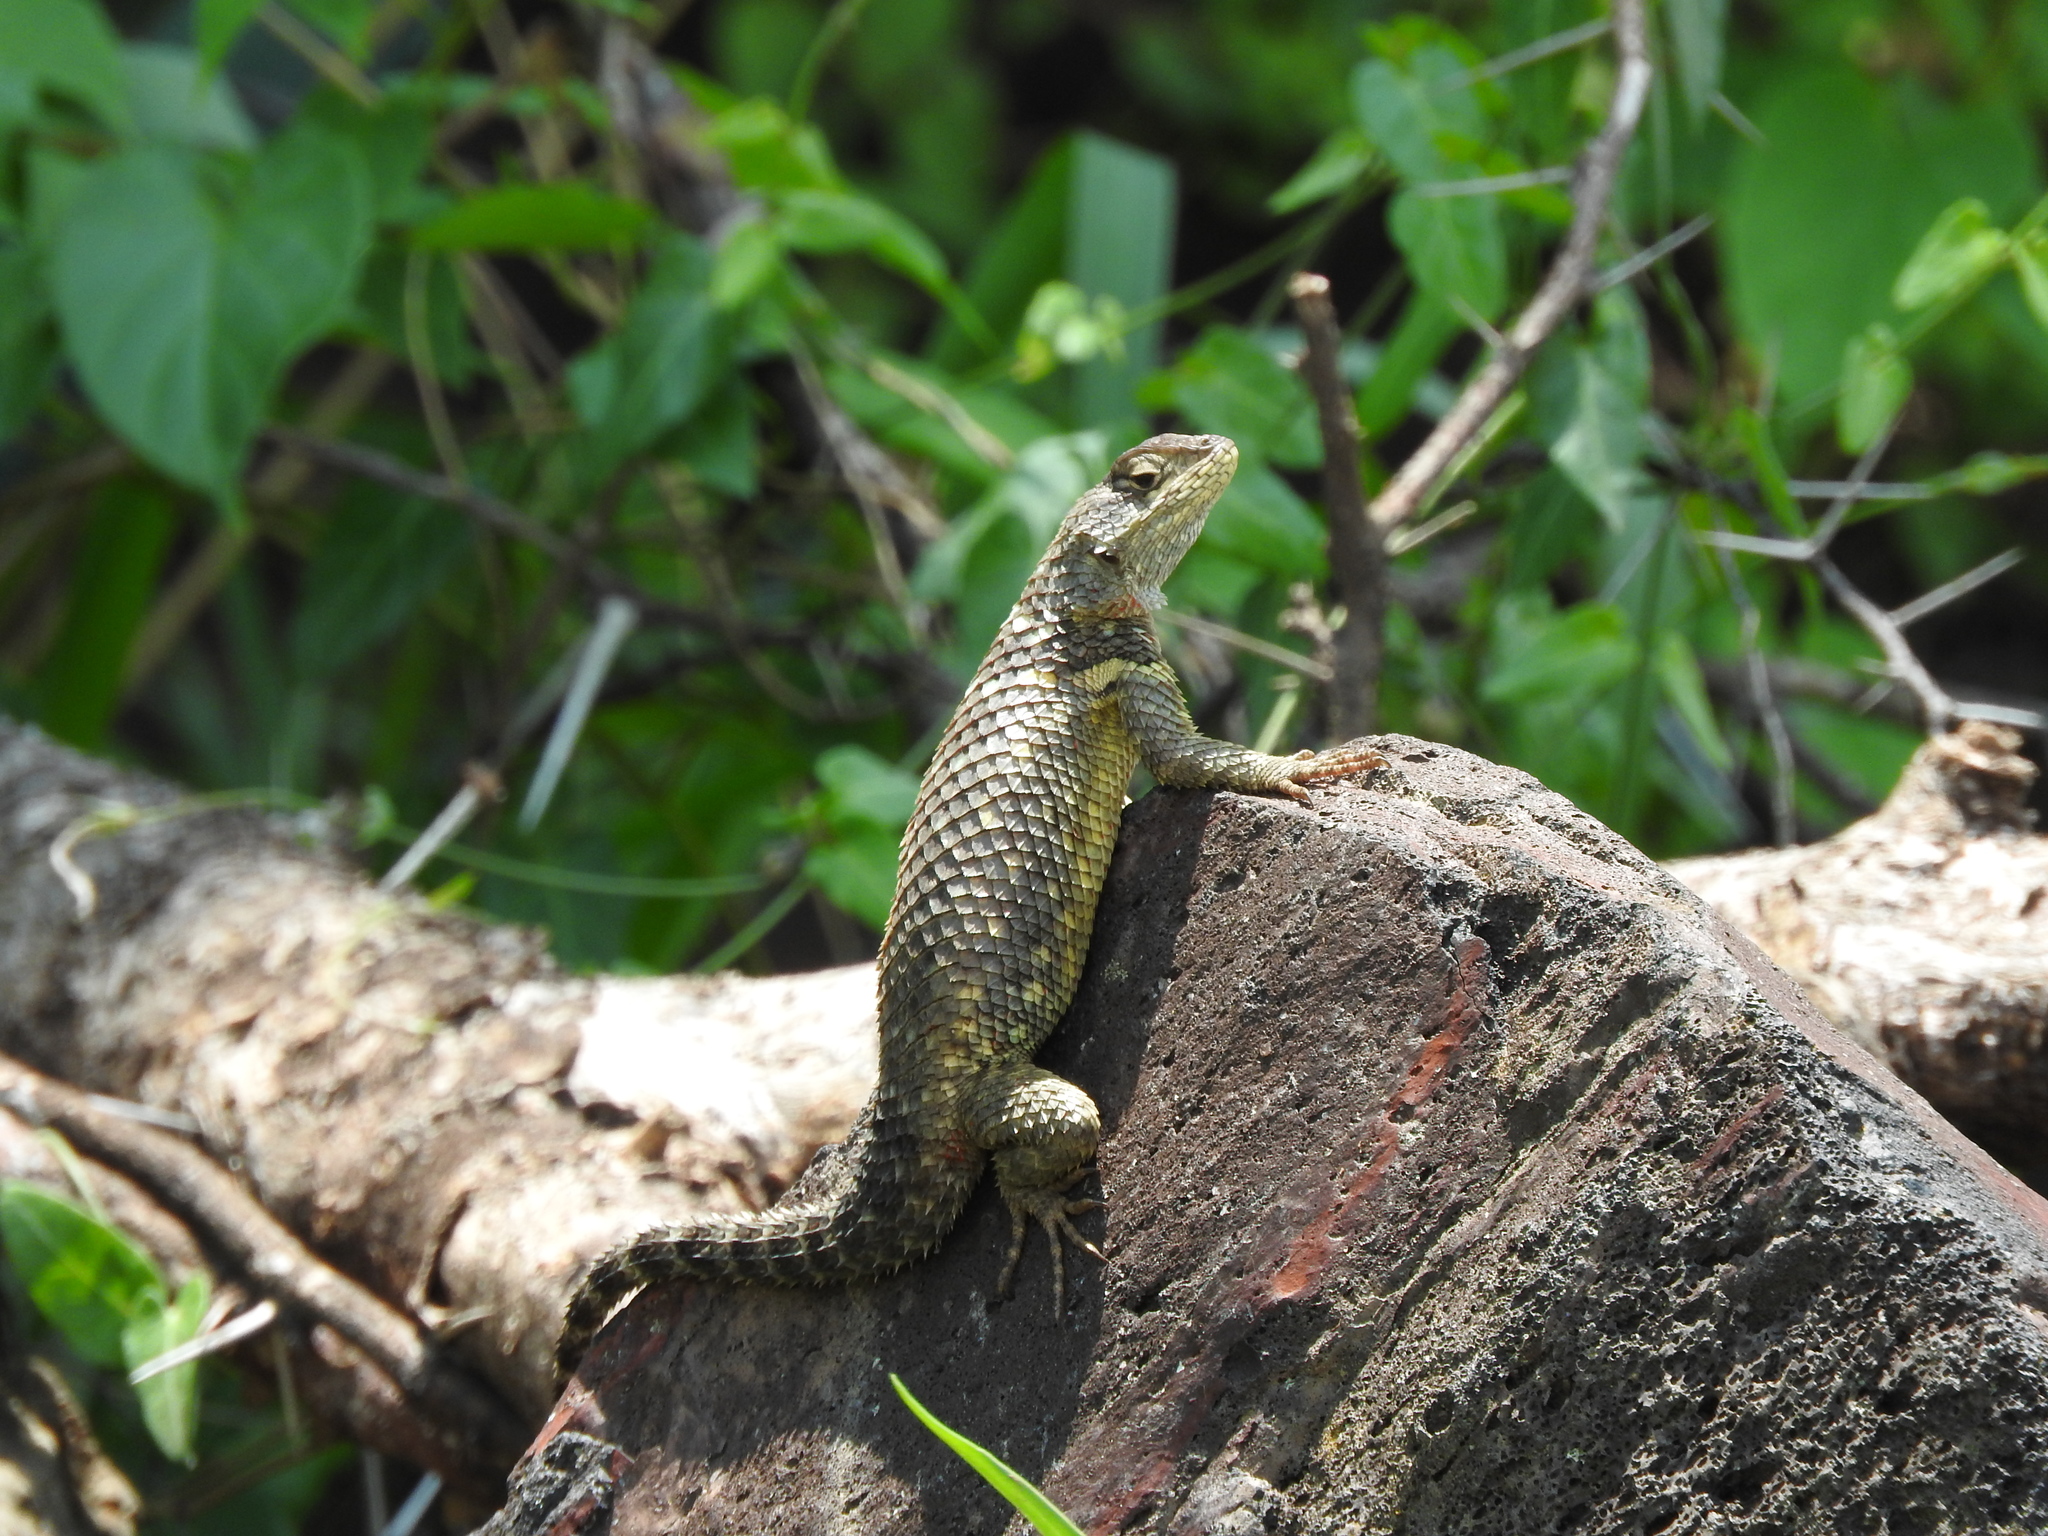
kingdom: Animalia
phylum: Chordata
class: Squamata
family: Phrynosomatidae
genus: Sceloporus
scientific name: Sceloporus torquatus
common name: Central plateau torquate lizard [melanogaster]
